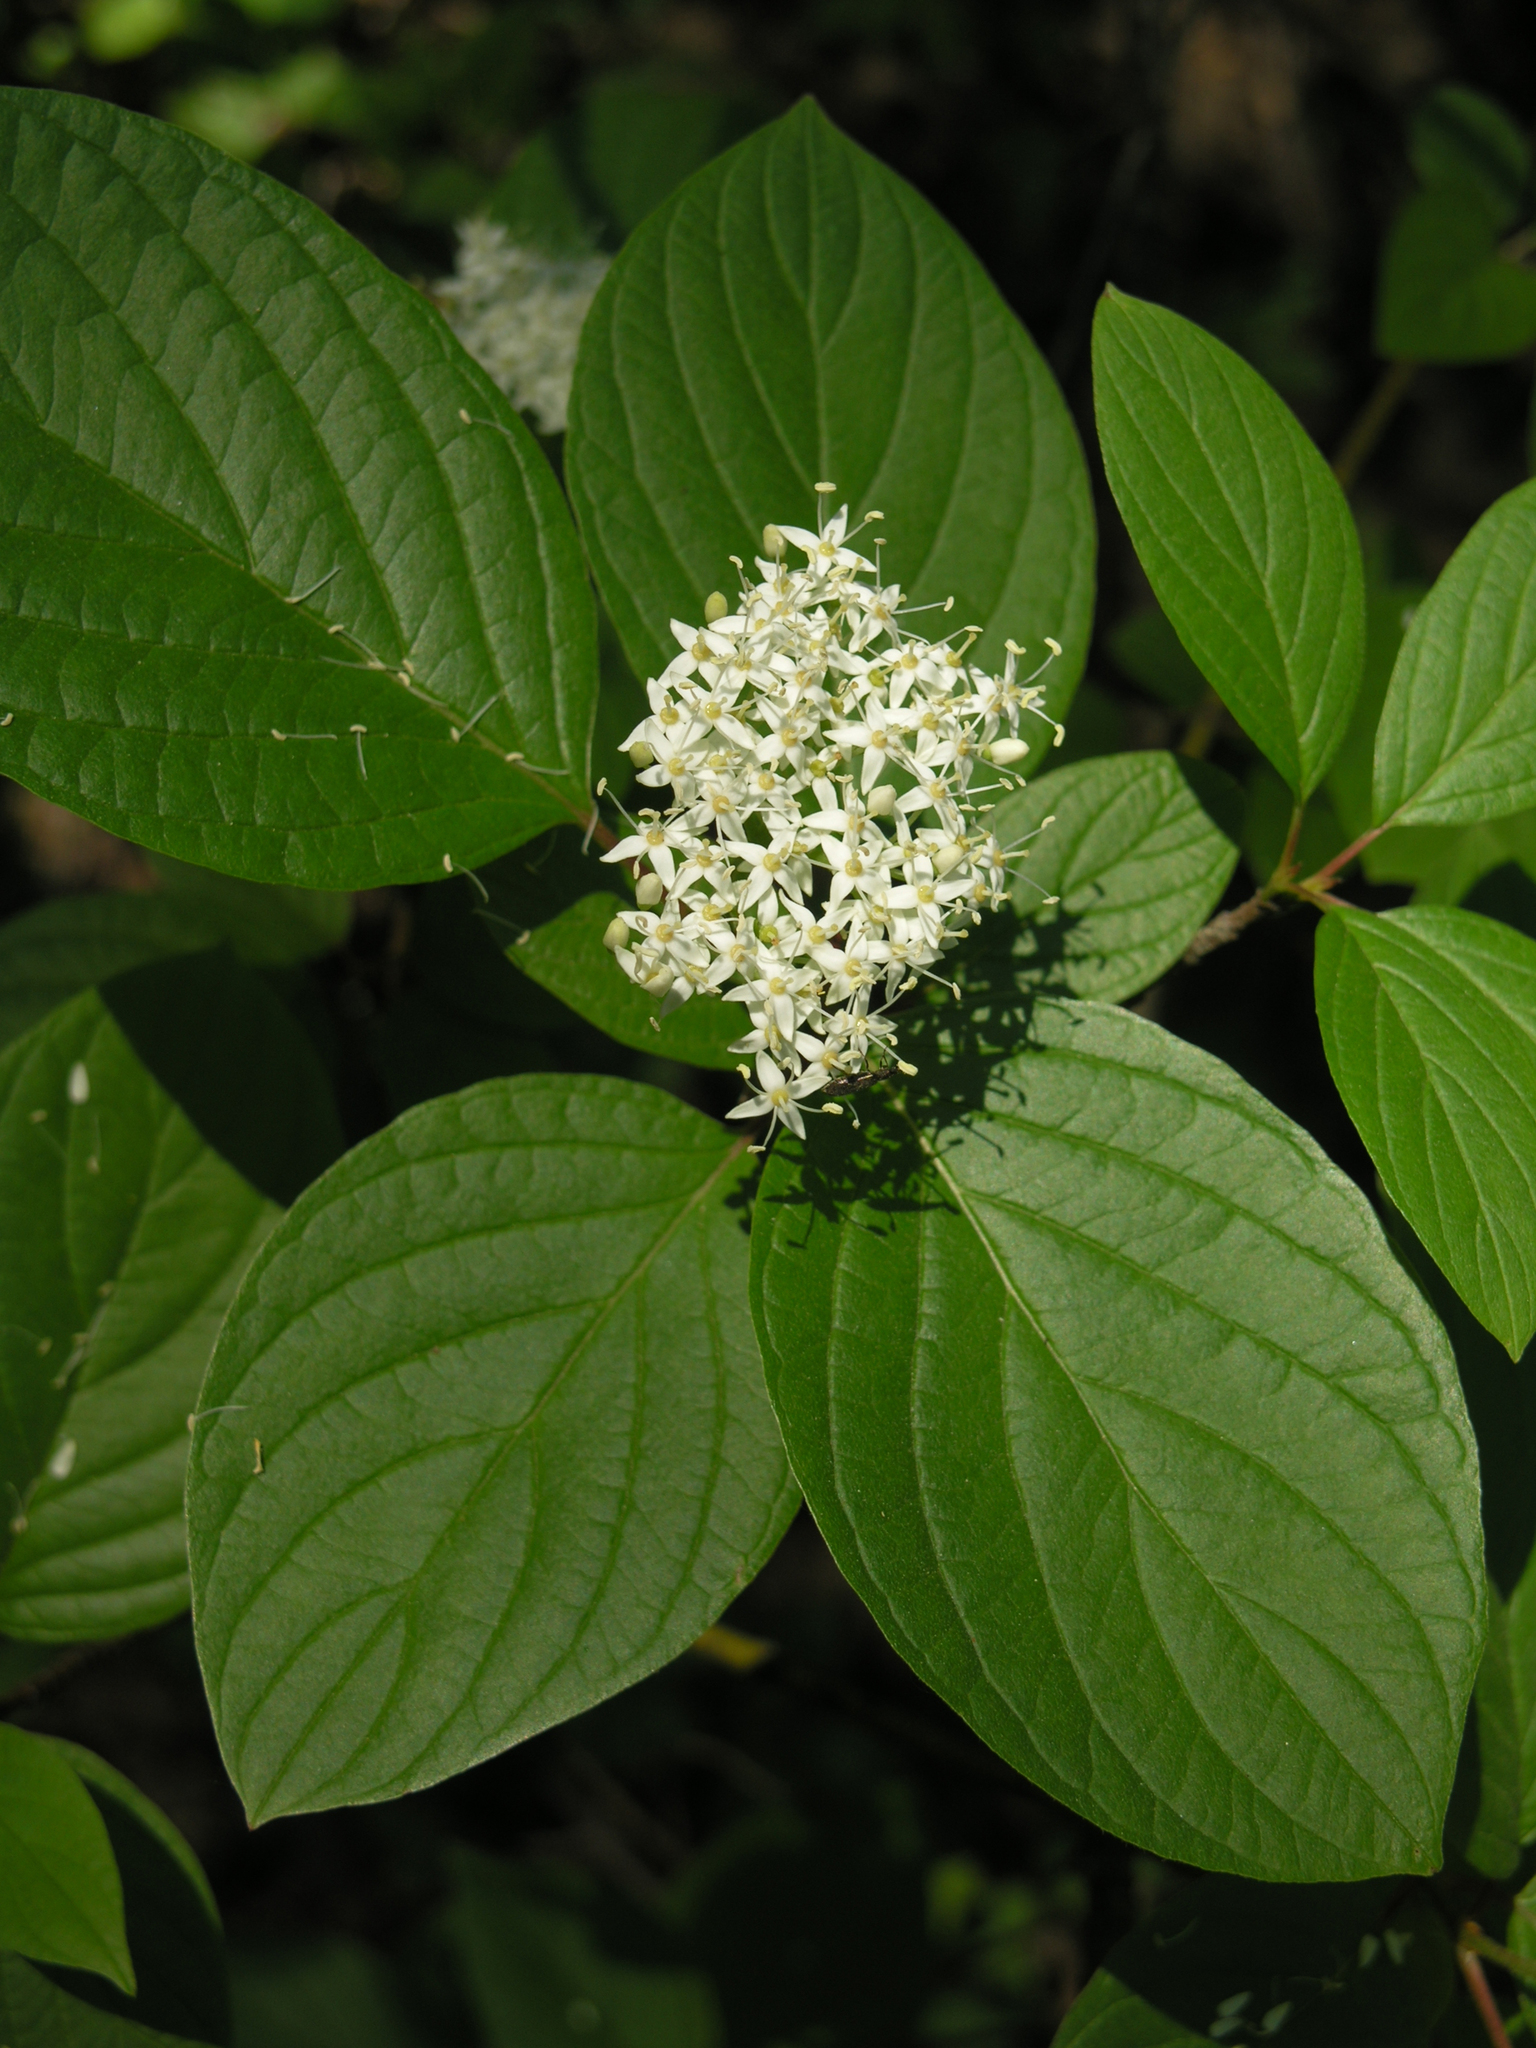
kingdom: Plantae
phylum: Tracheophyta
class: Magnoliopsida
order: Cornales
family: Cornaceae
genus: Cornus
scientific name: Cornus alba
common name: White dogwood
